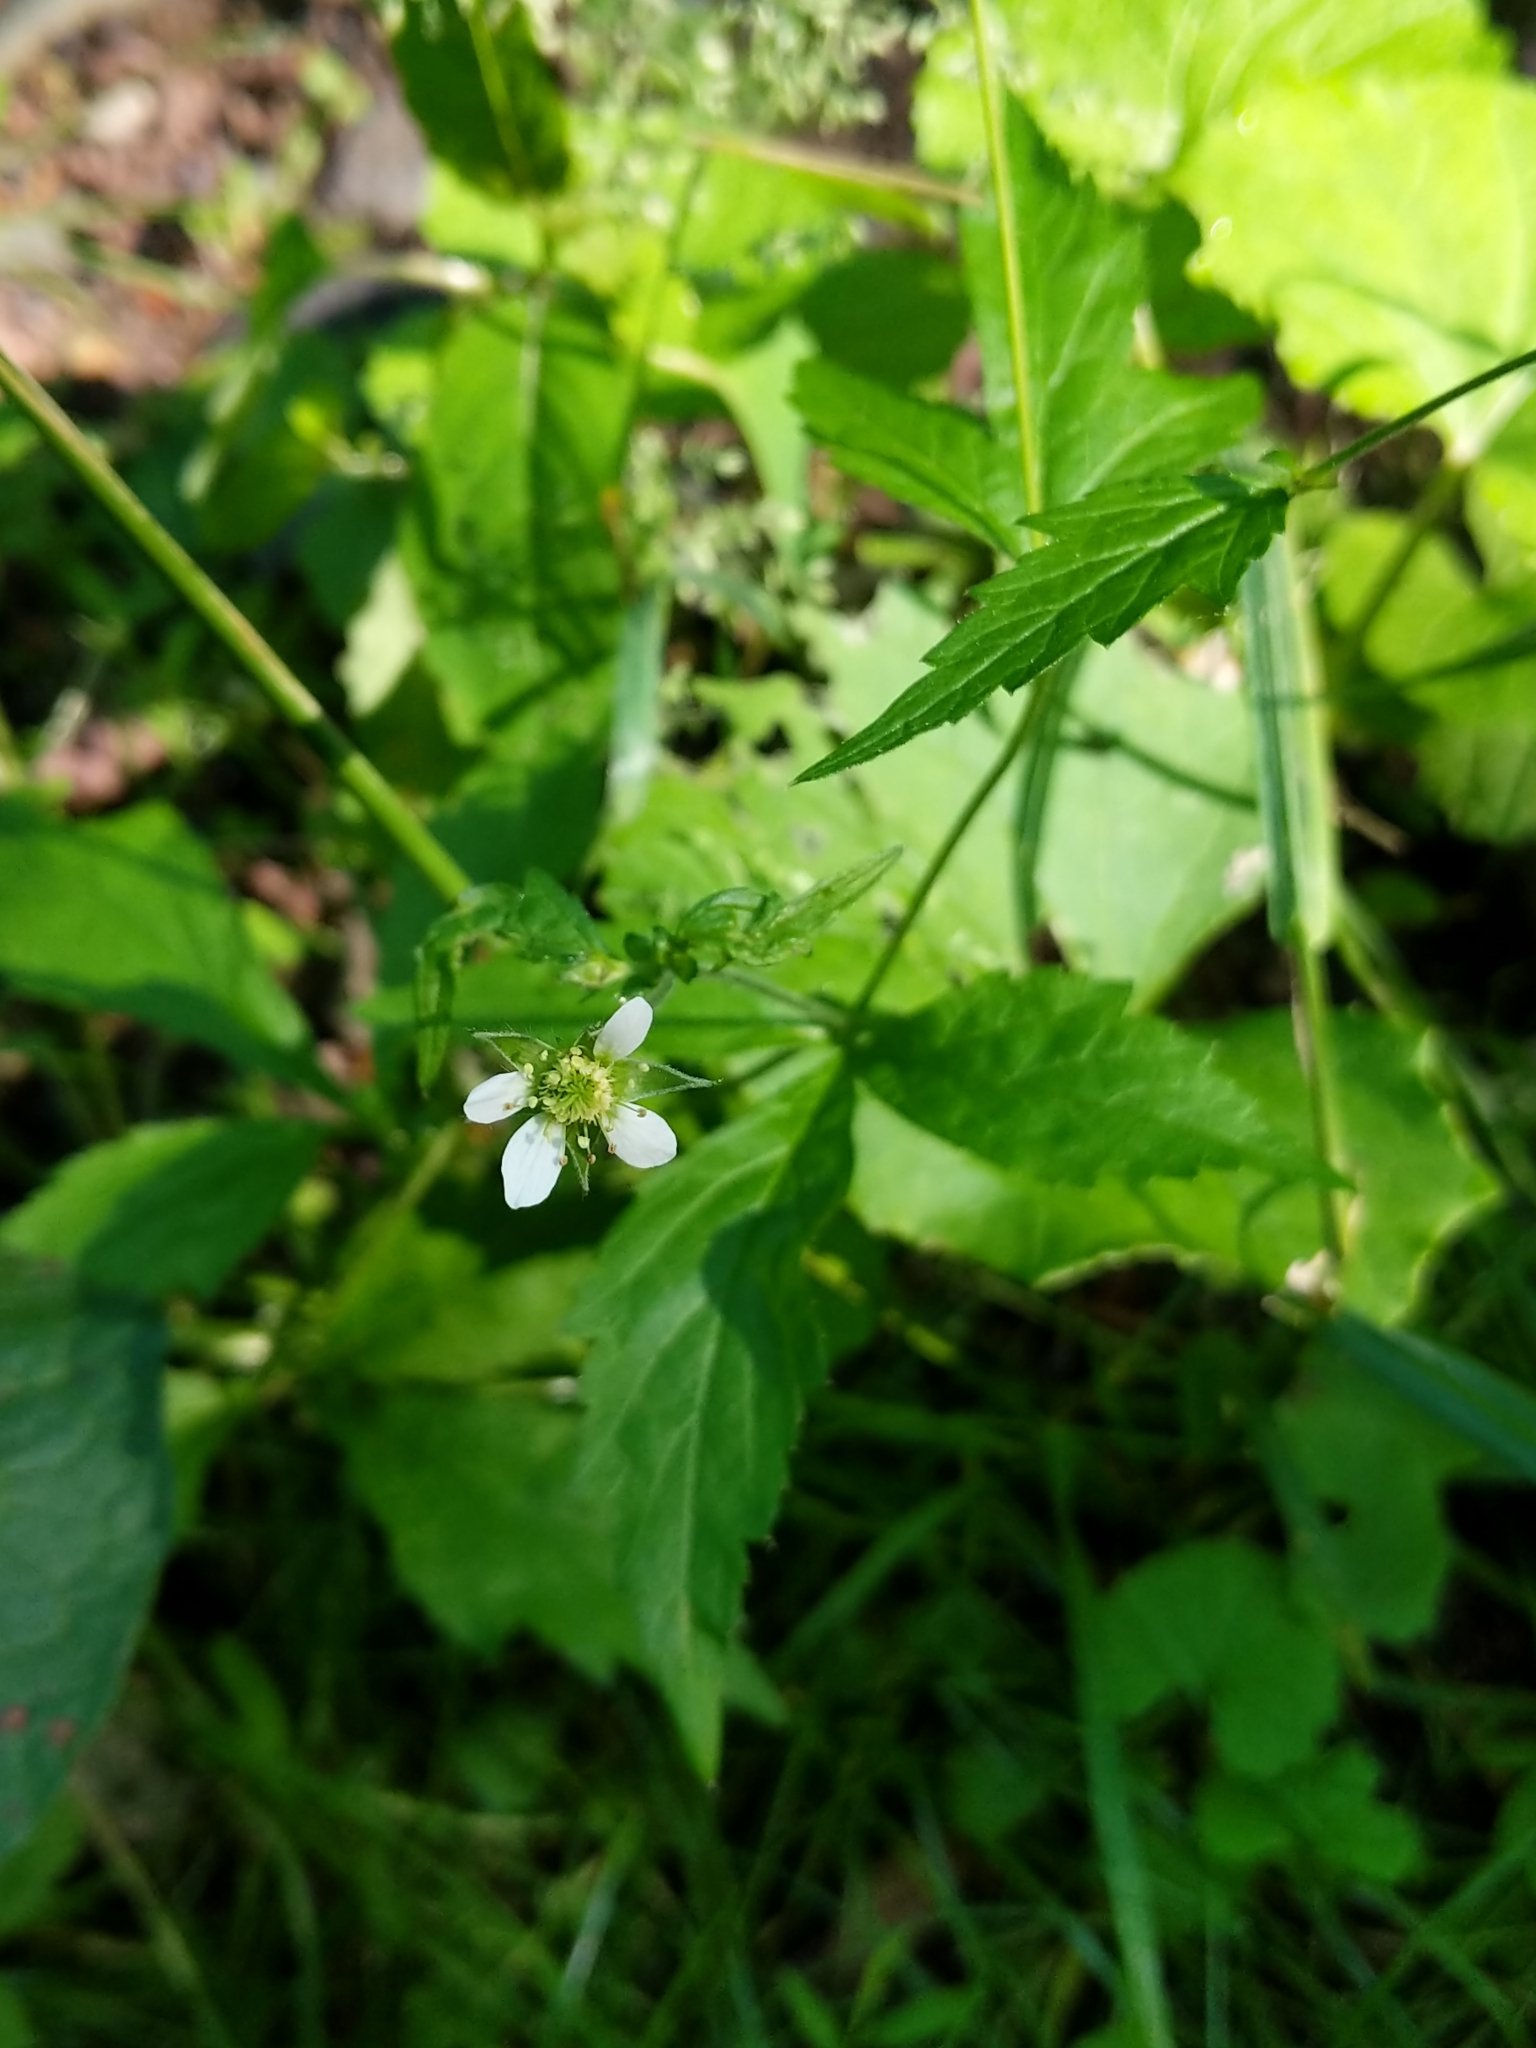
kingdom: Plantae
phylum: Tracheophyta
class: Magnoliopsida
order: Rosales
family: Rosaceae
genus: Geum
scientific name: Geum canadense
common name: White avens
